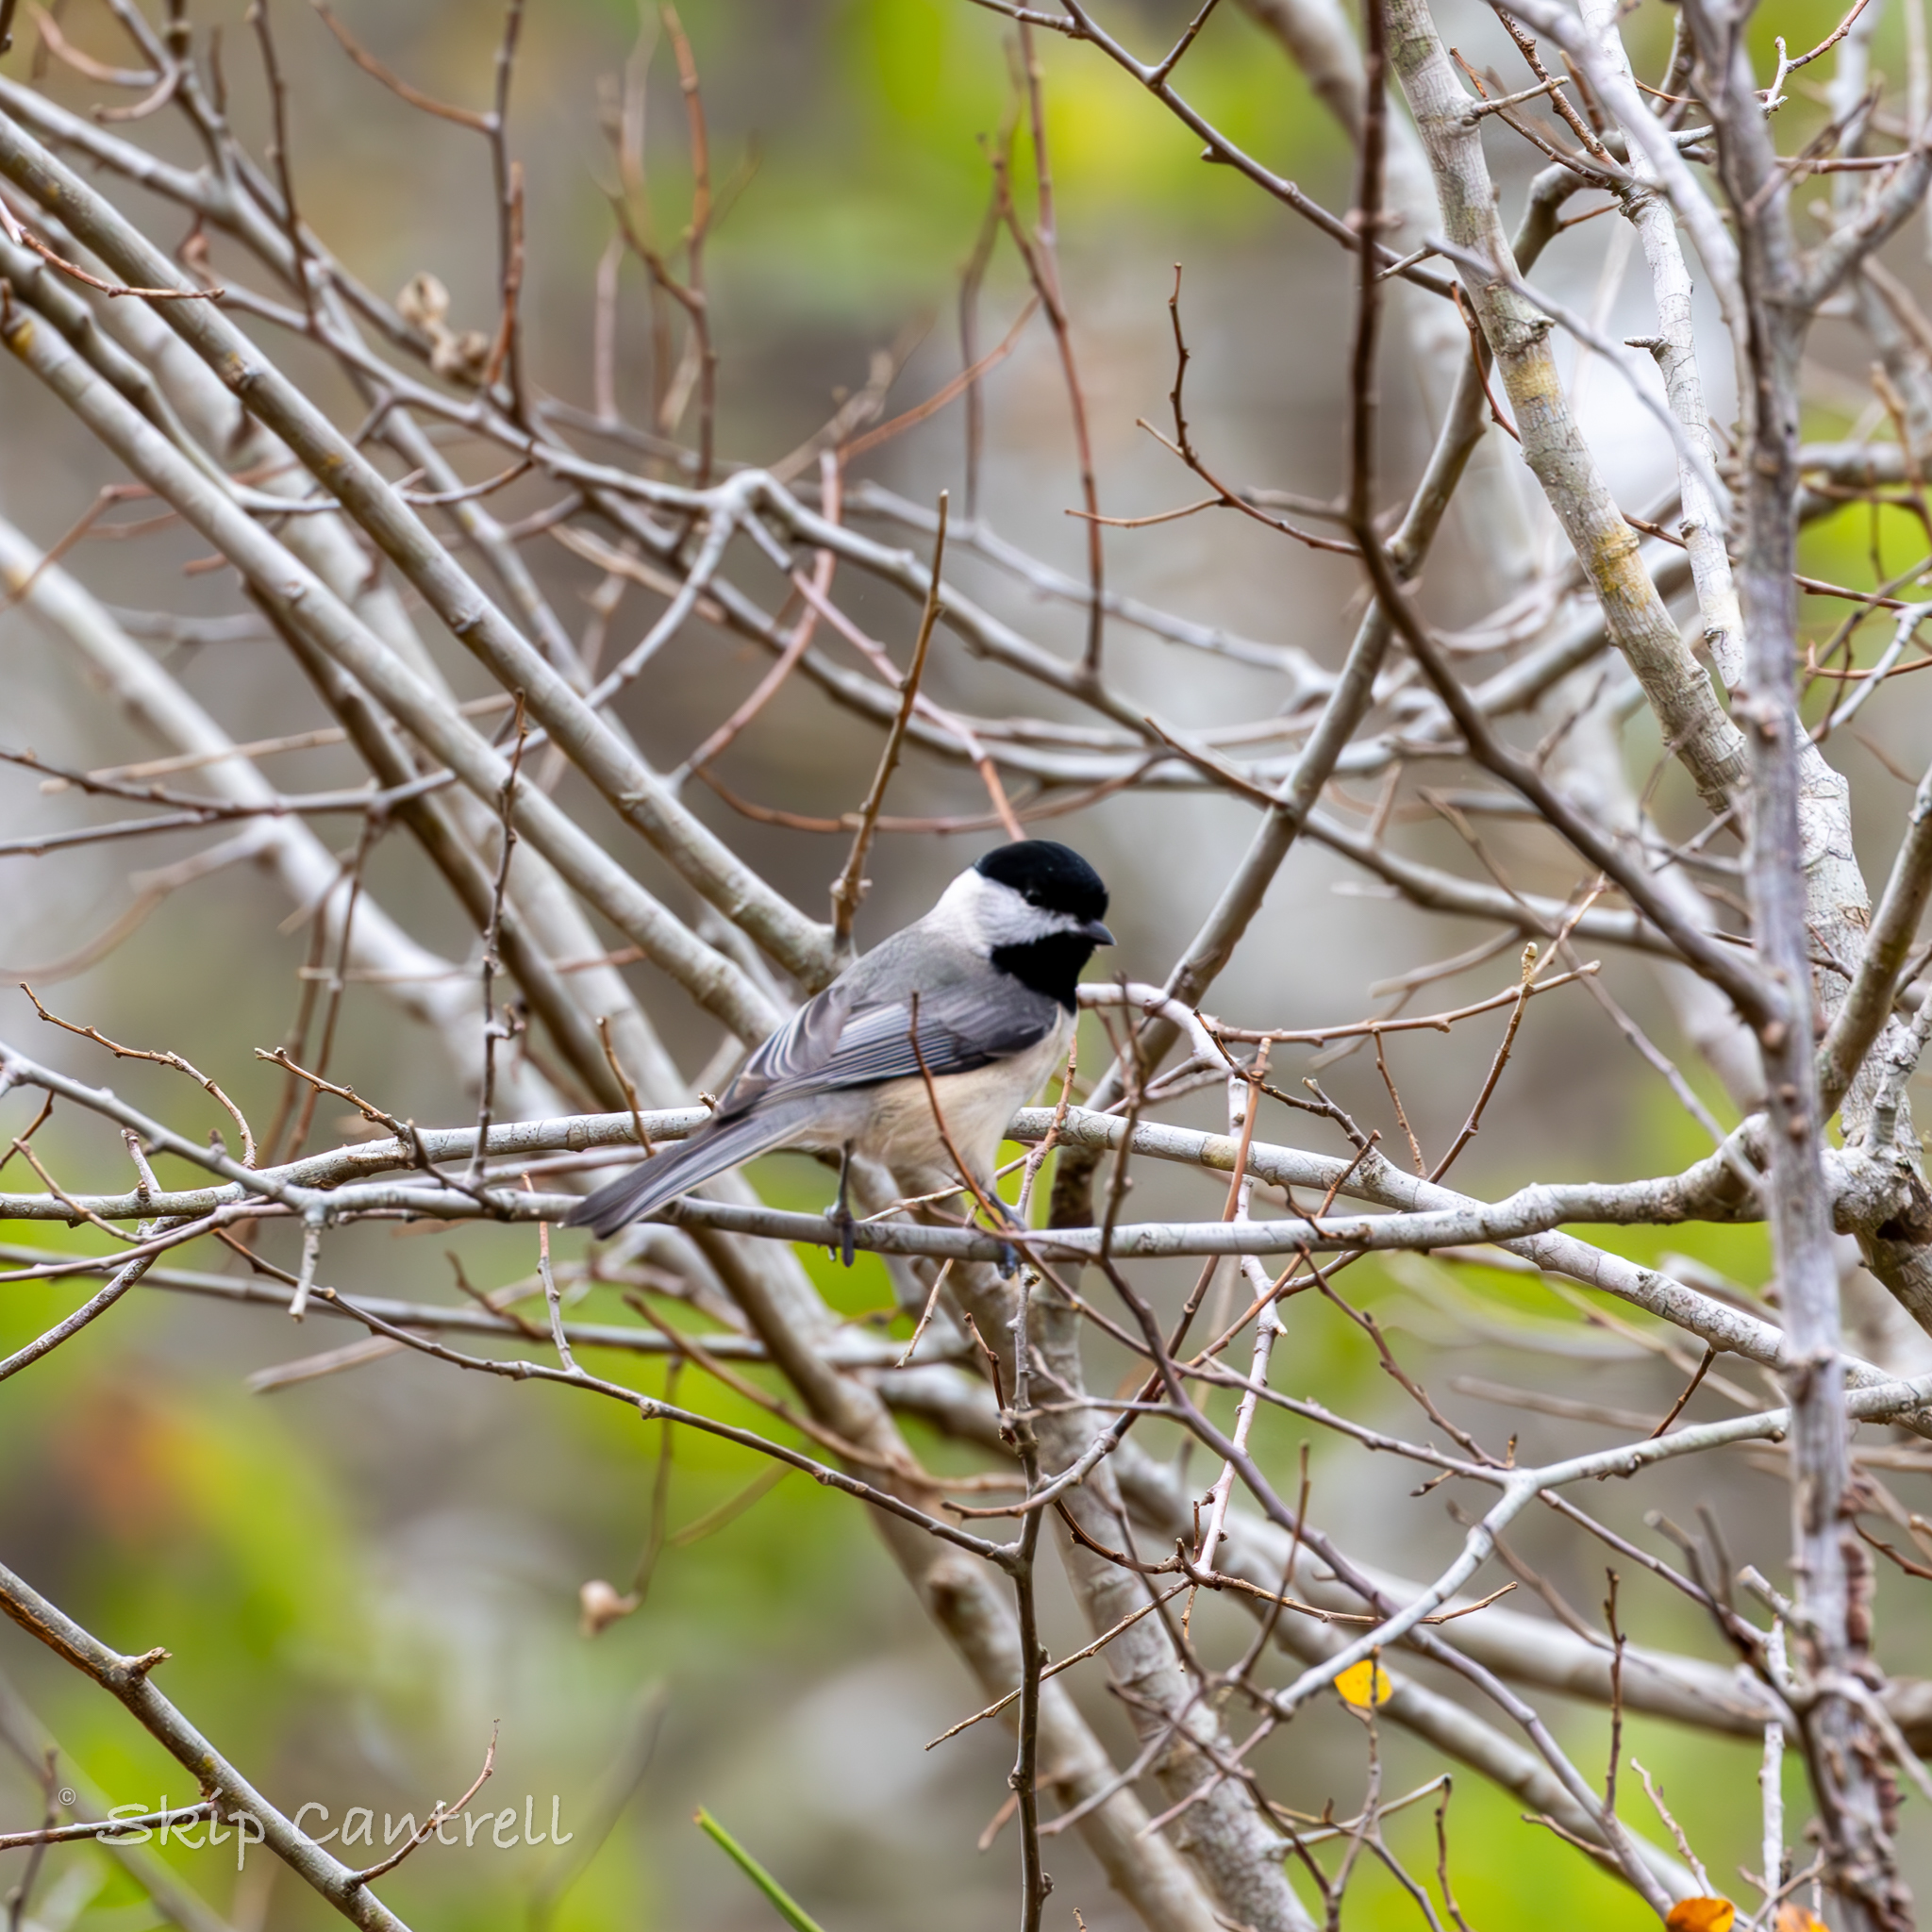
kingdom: Animalia
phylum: Chordata
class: Aves
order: Passeriformes
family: Paridae
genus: Poecile
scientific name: Poecile carolinensis
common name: Carolina chickadee
